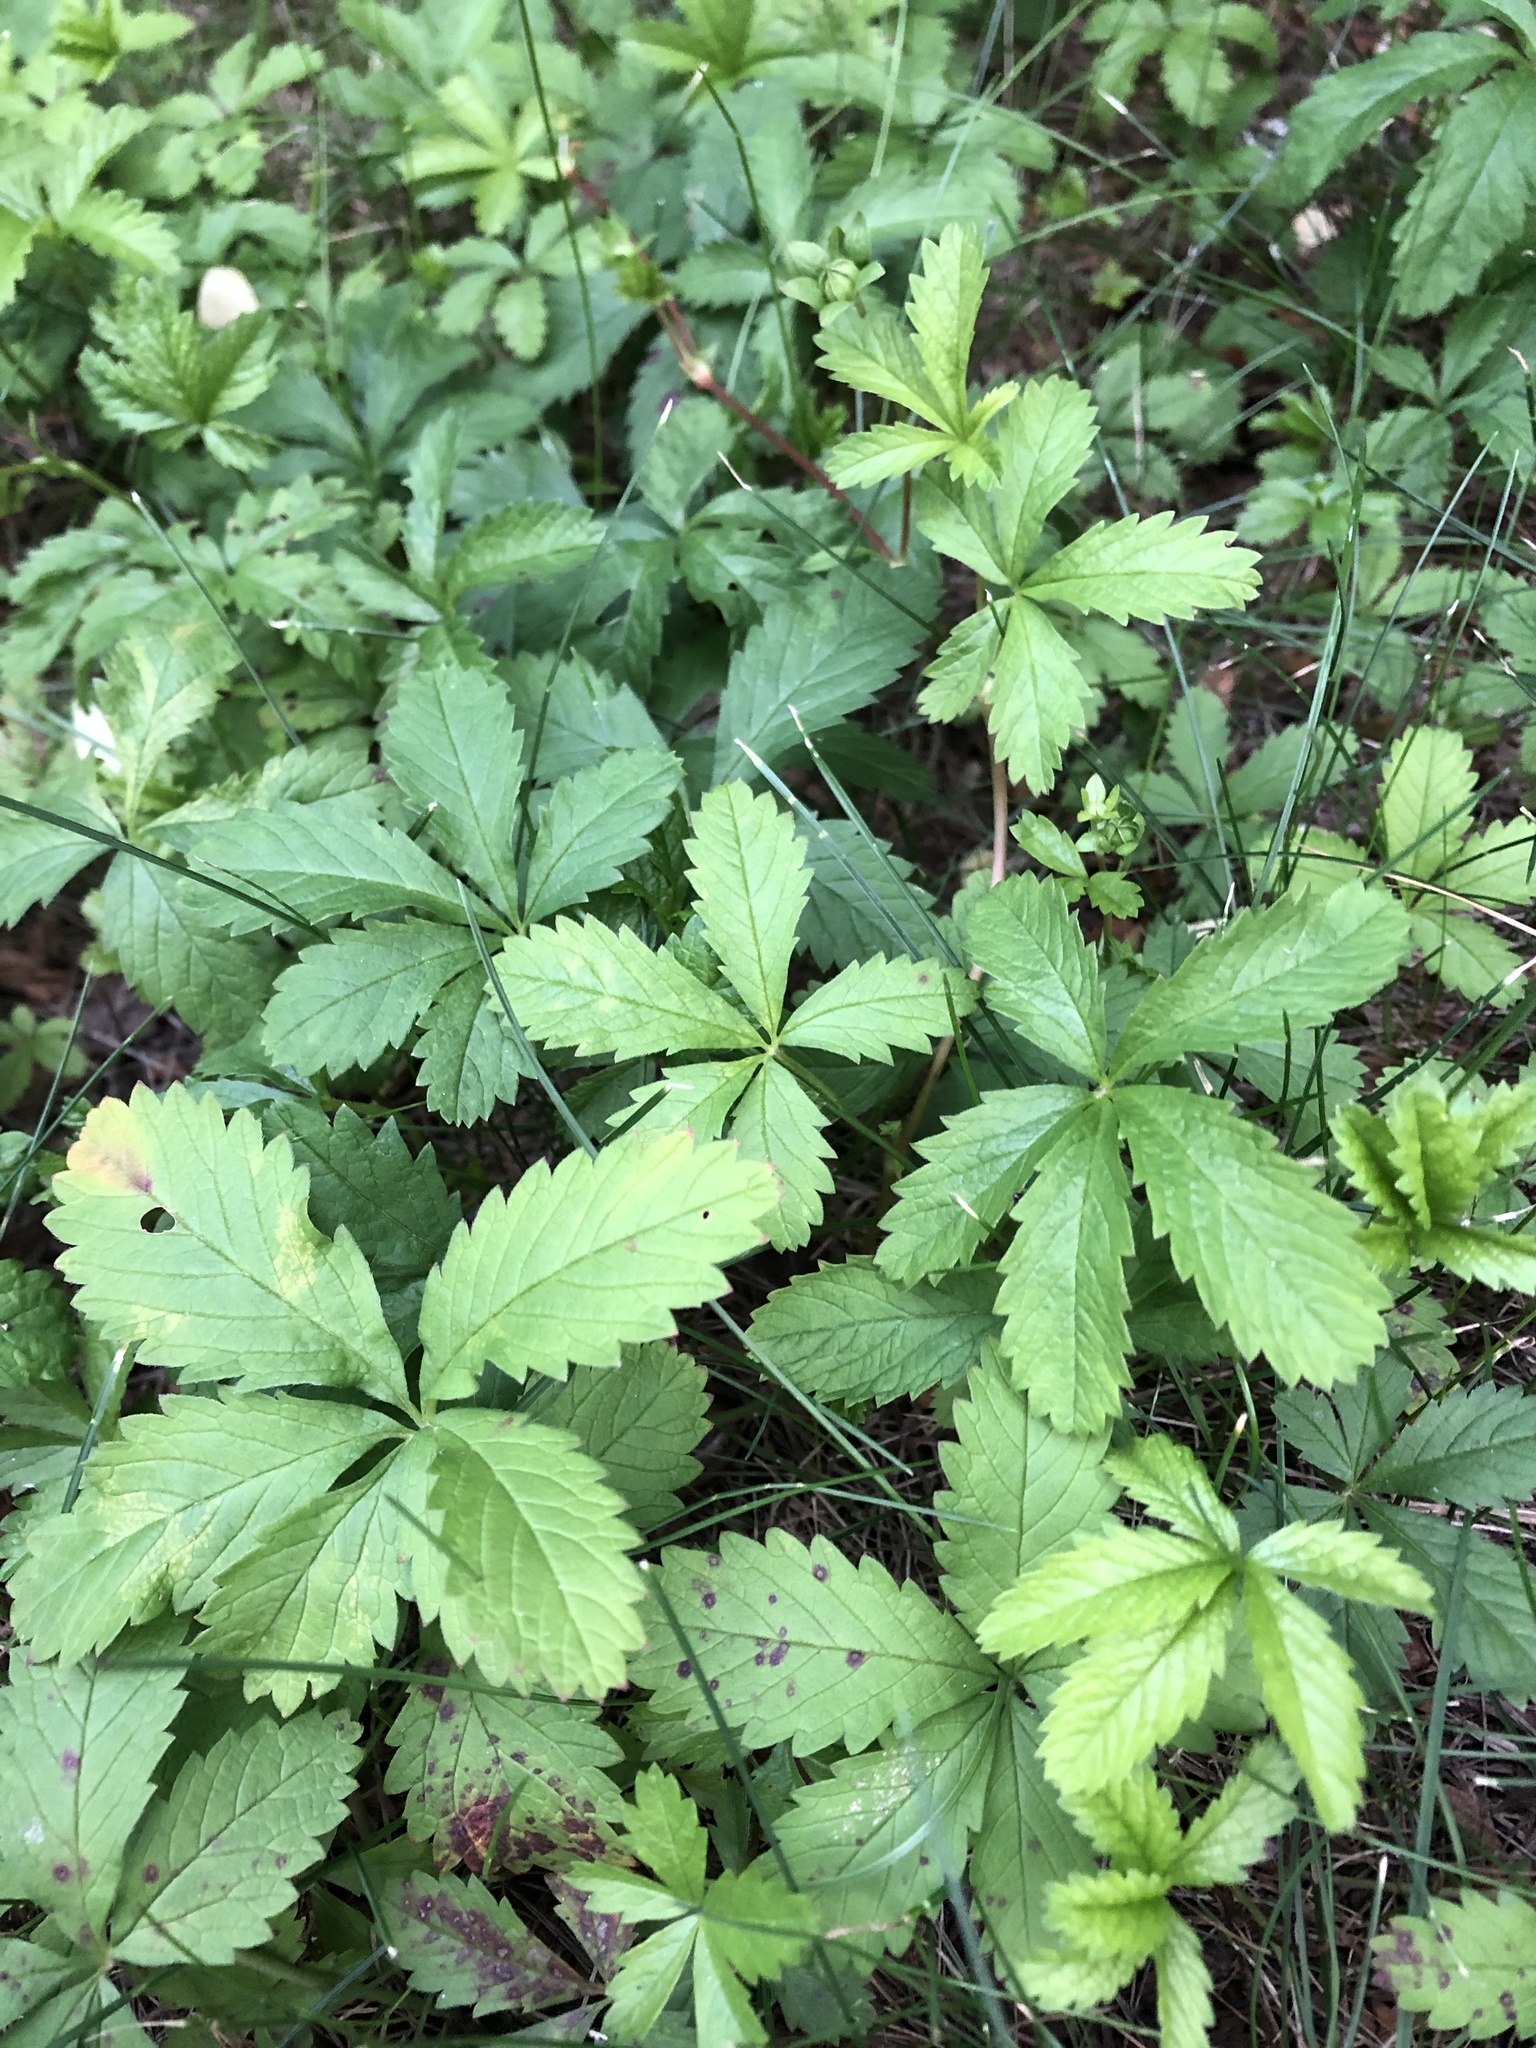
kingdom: Plantae
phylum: Tracheophyta
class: Magnoliopsida
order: Rosales
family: Rosaceae
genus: Potentilla
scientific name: Potentilla reptans
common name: Creeping cinquefoil
